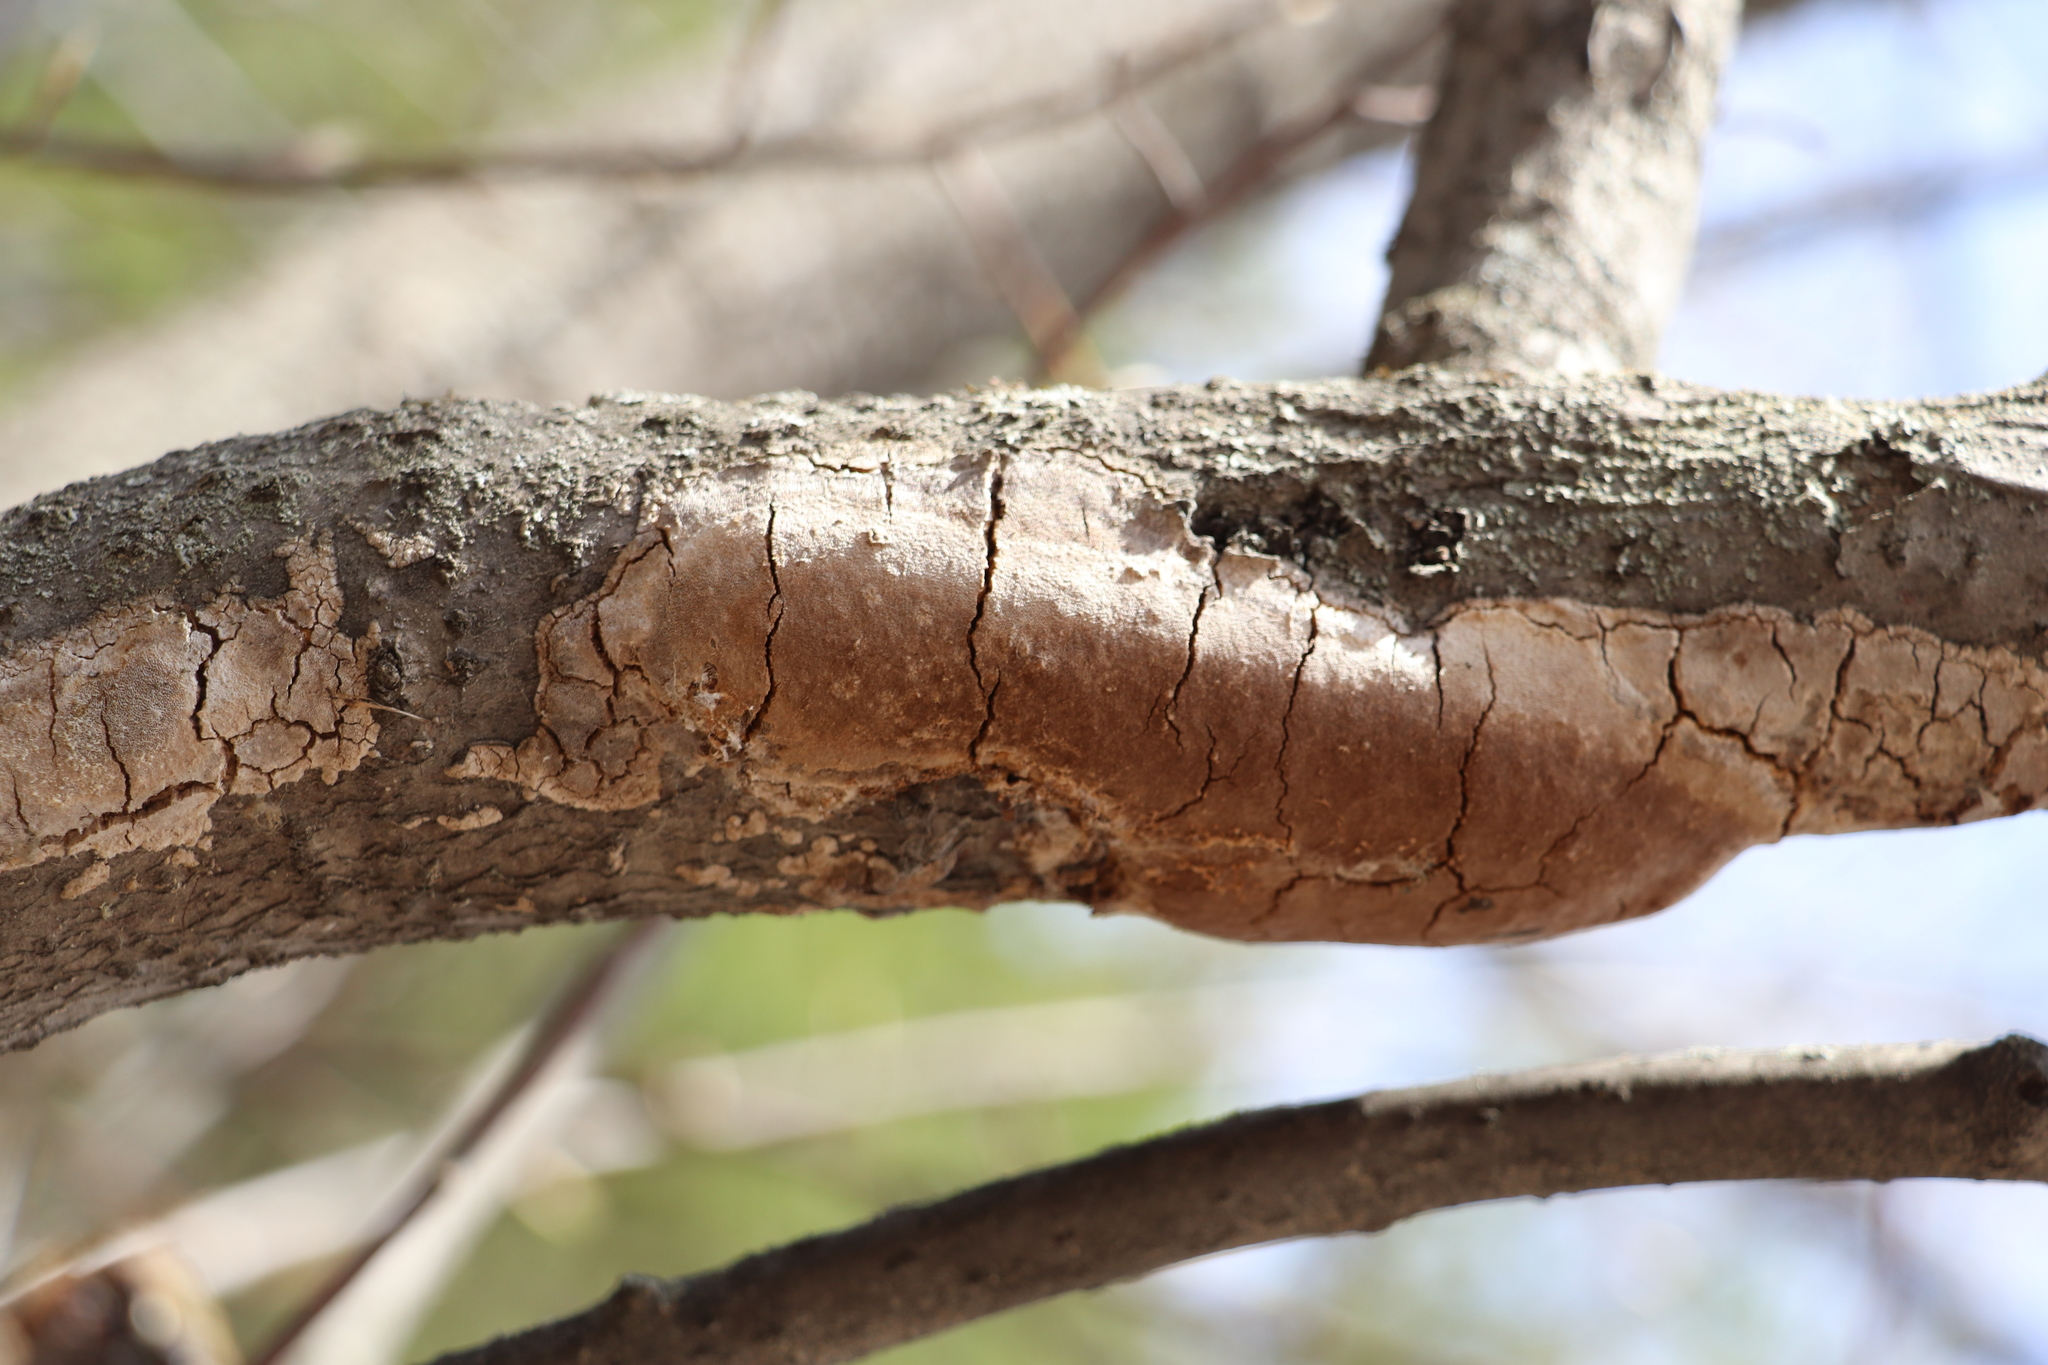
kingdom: Fungi
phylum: Basidiomycota
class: Agaricomycetes
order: Hymenochaetales
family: Hymenochaetaceae
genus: Fomitiporia
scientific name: Fomitiporia punctata
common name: Elbowpatch crust
